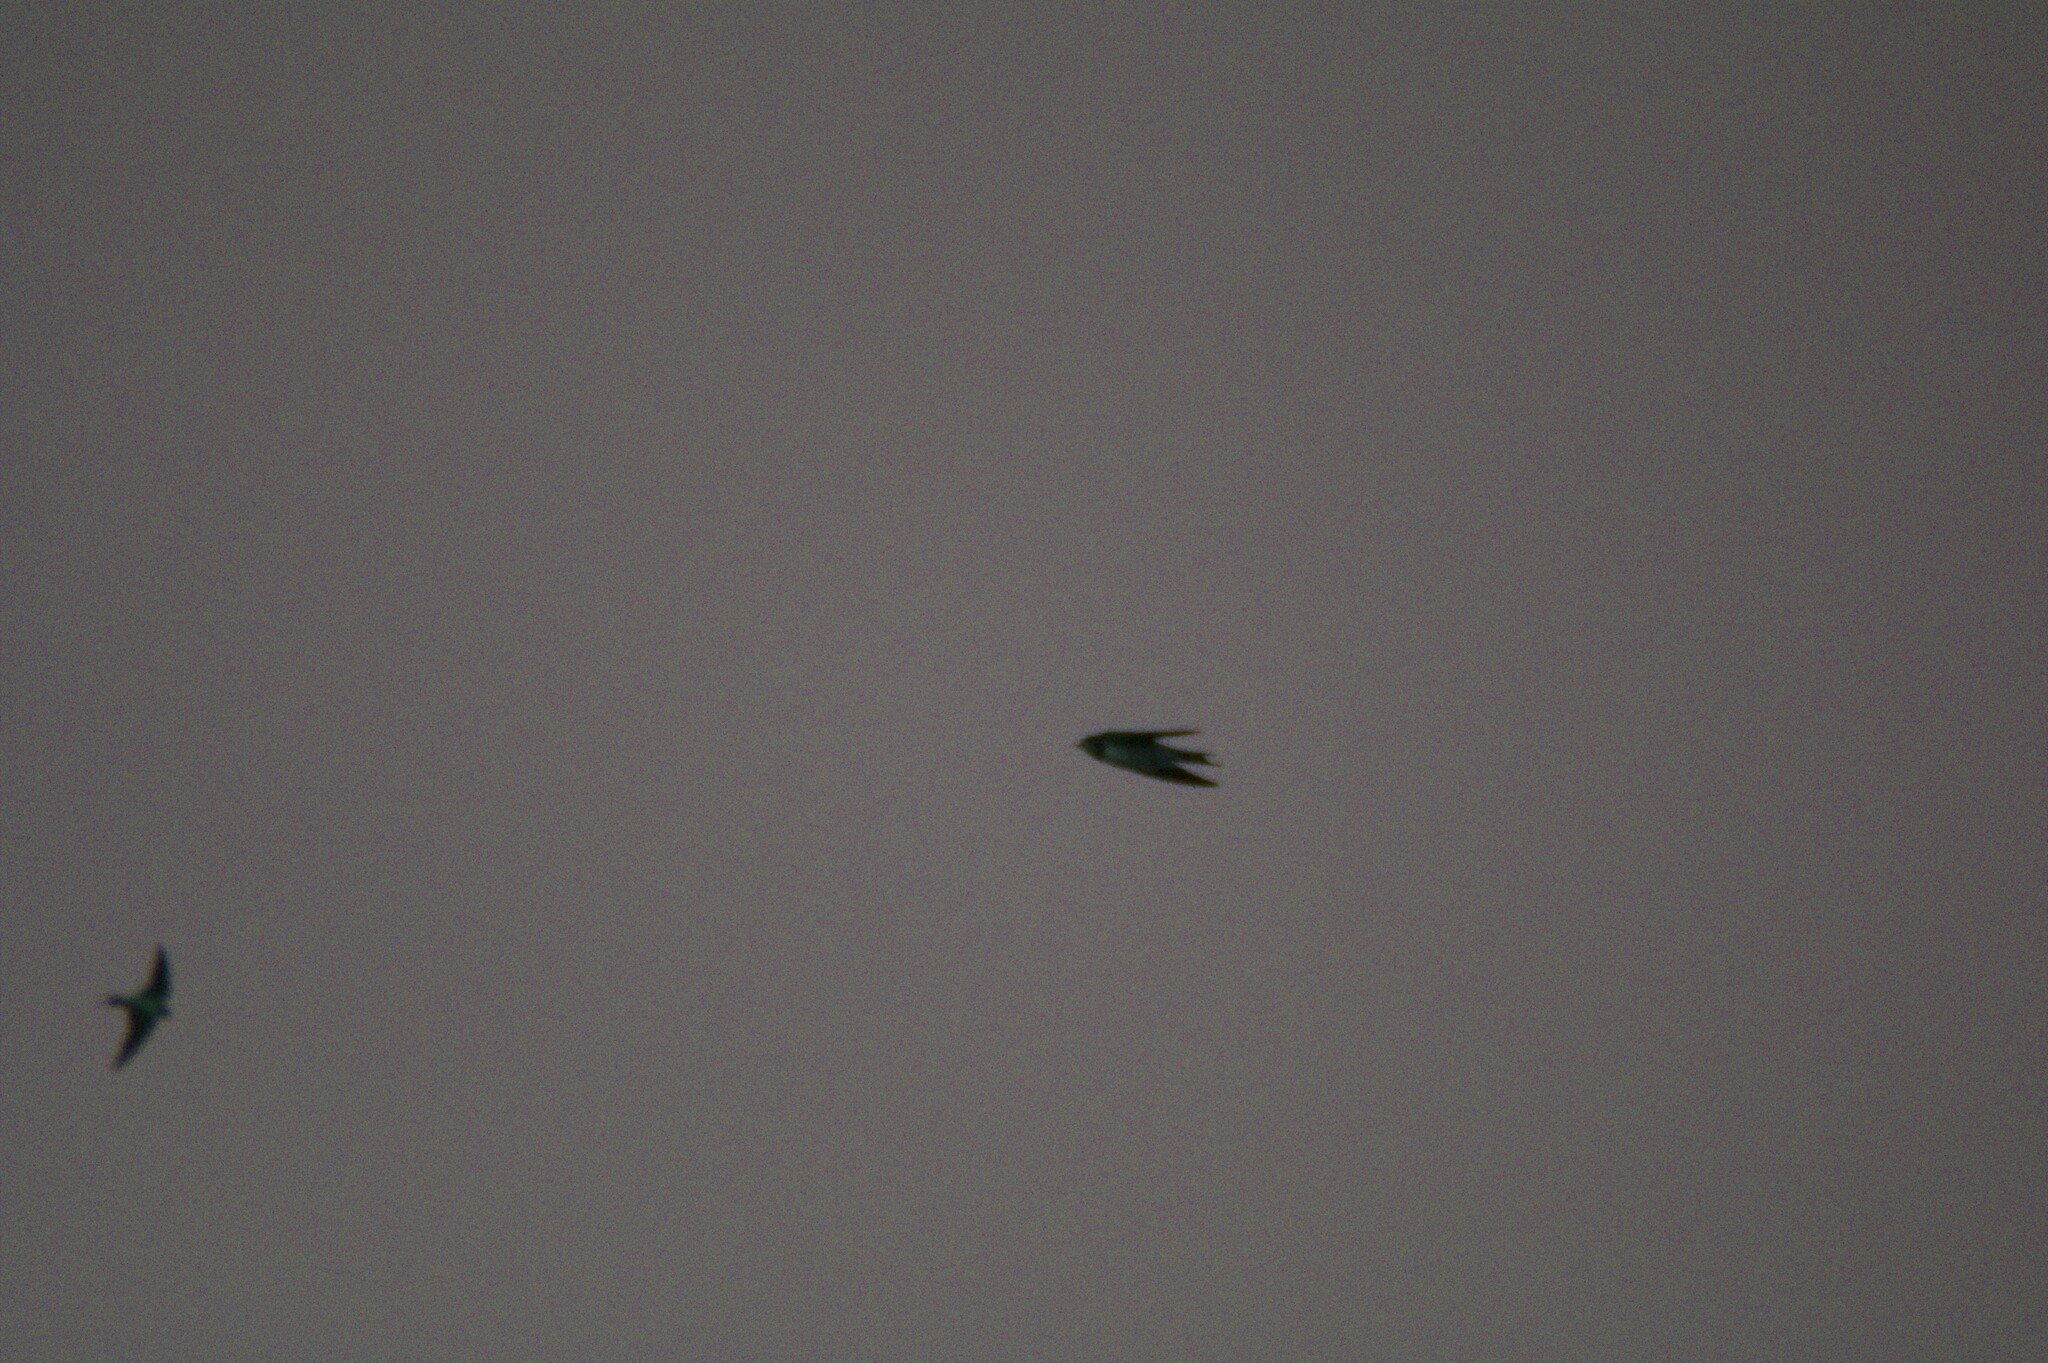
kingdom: Animalia
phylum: Chordata
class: Aves
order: Passeriformes
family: Hirundinidae
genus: Hirundo
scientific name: Hirundo rustica
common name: Barn swallow
